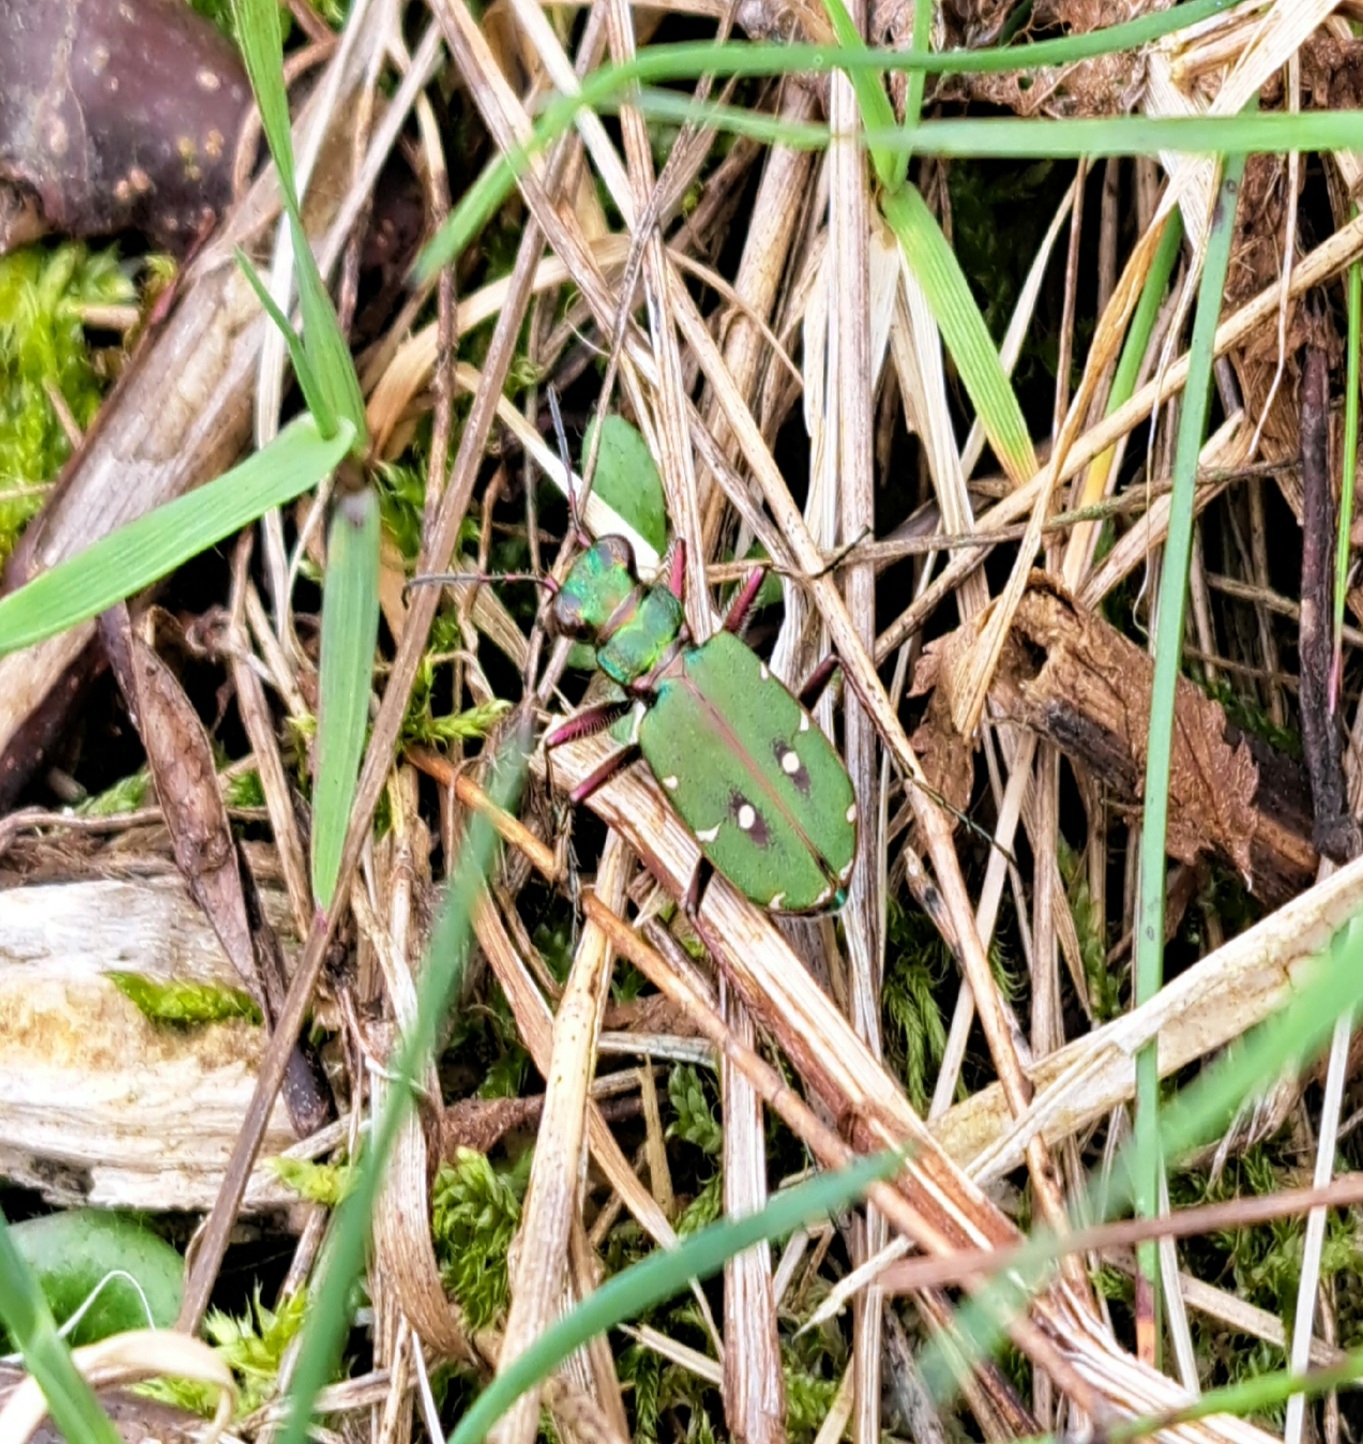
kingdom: Animalia
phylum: Arthropoda
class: Insecta
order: Coleoptera
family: Carabidae
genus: Cicindela
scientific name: Cicindela campestris
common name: Common tiger beetle
